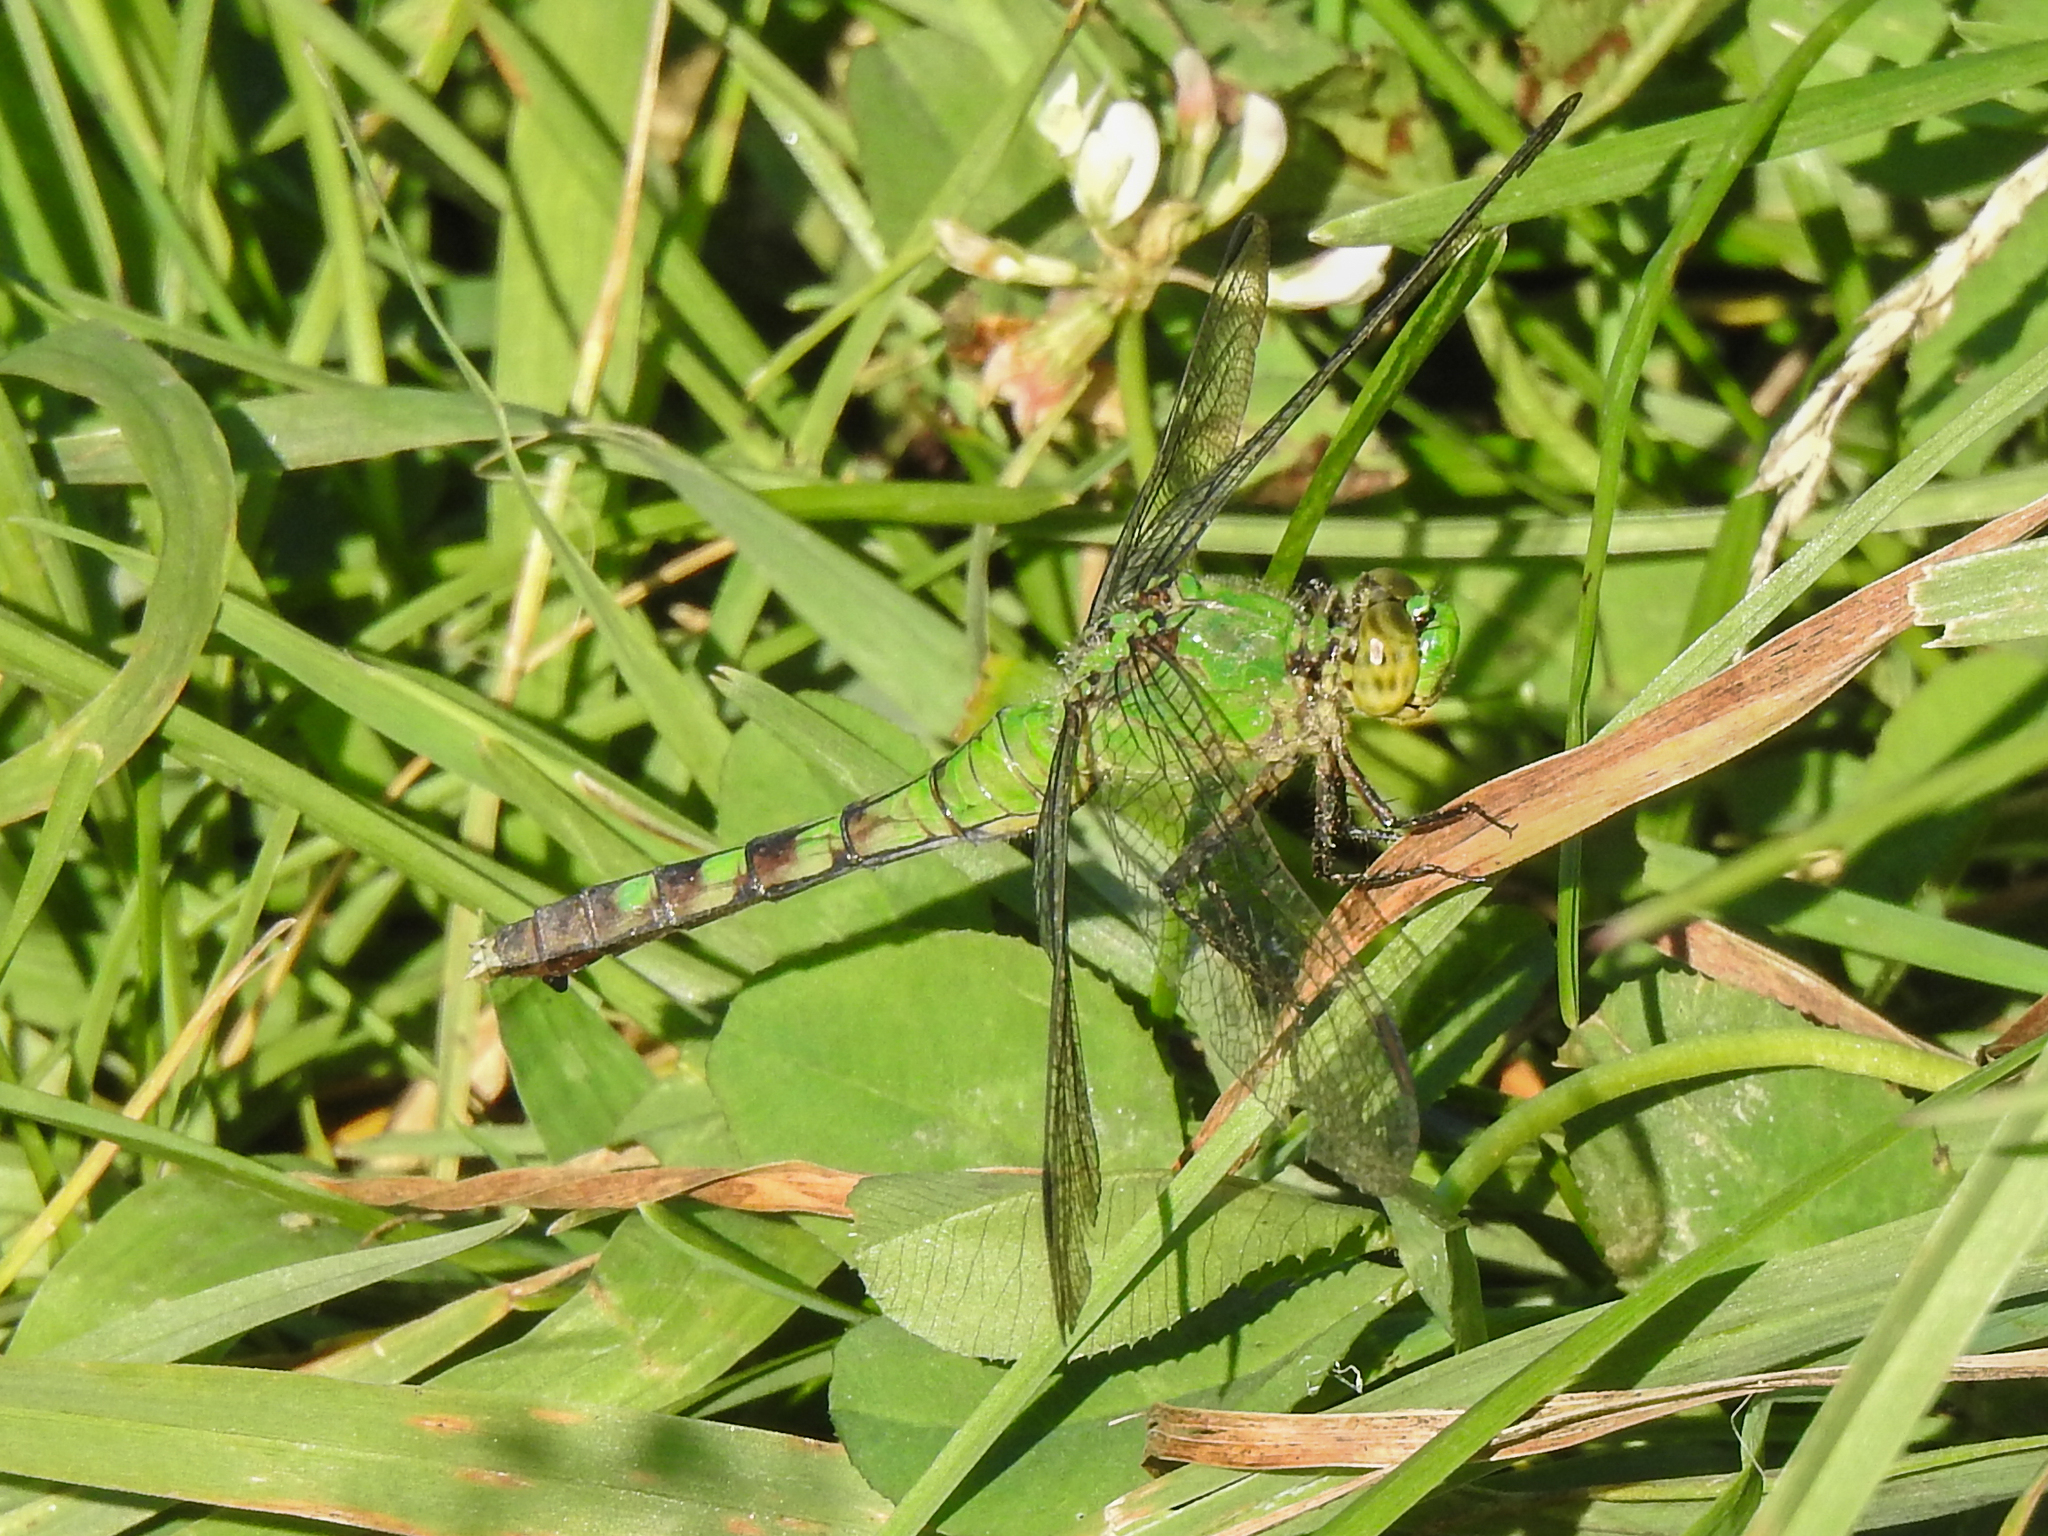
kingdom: Animalia
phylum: Arthropoda
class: Insecta
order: Odonata
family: Libellulidae
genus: Erythemis
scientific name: Erythemis simplicicollis
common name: Eastern pondhawk
